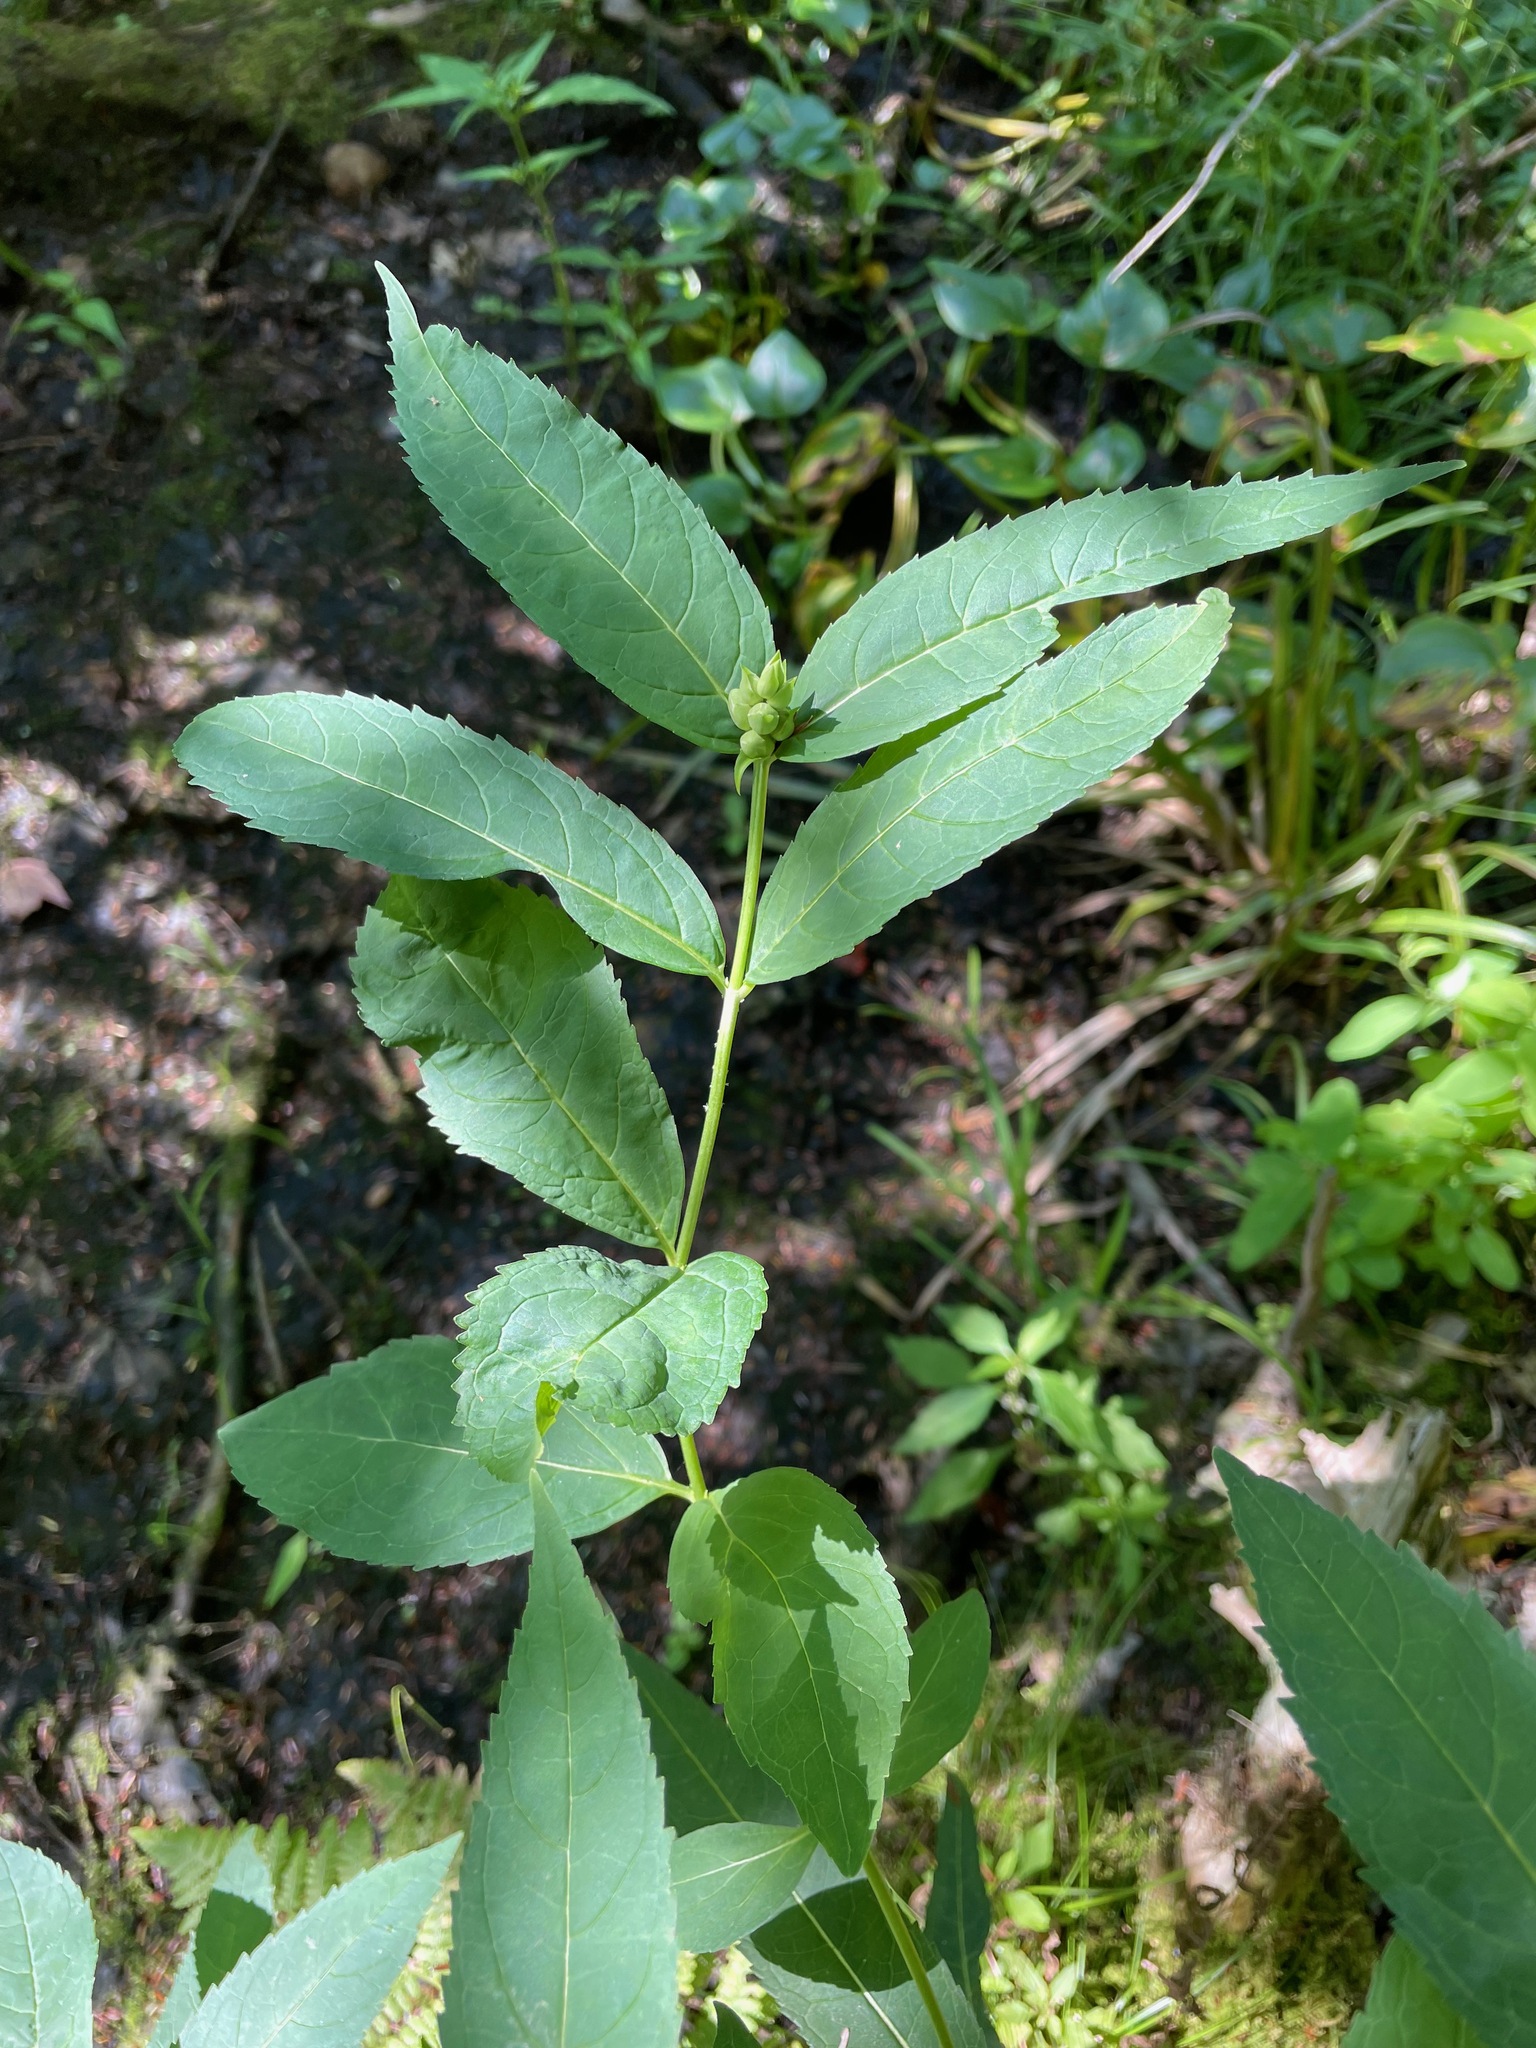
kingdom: Plantae
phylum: Tracheophyta
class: Magnoliopsida
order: Lamiales
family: Plantaginaceae
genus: Chelone
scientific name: Chelone glabra
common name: Snakehead
